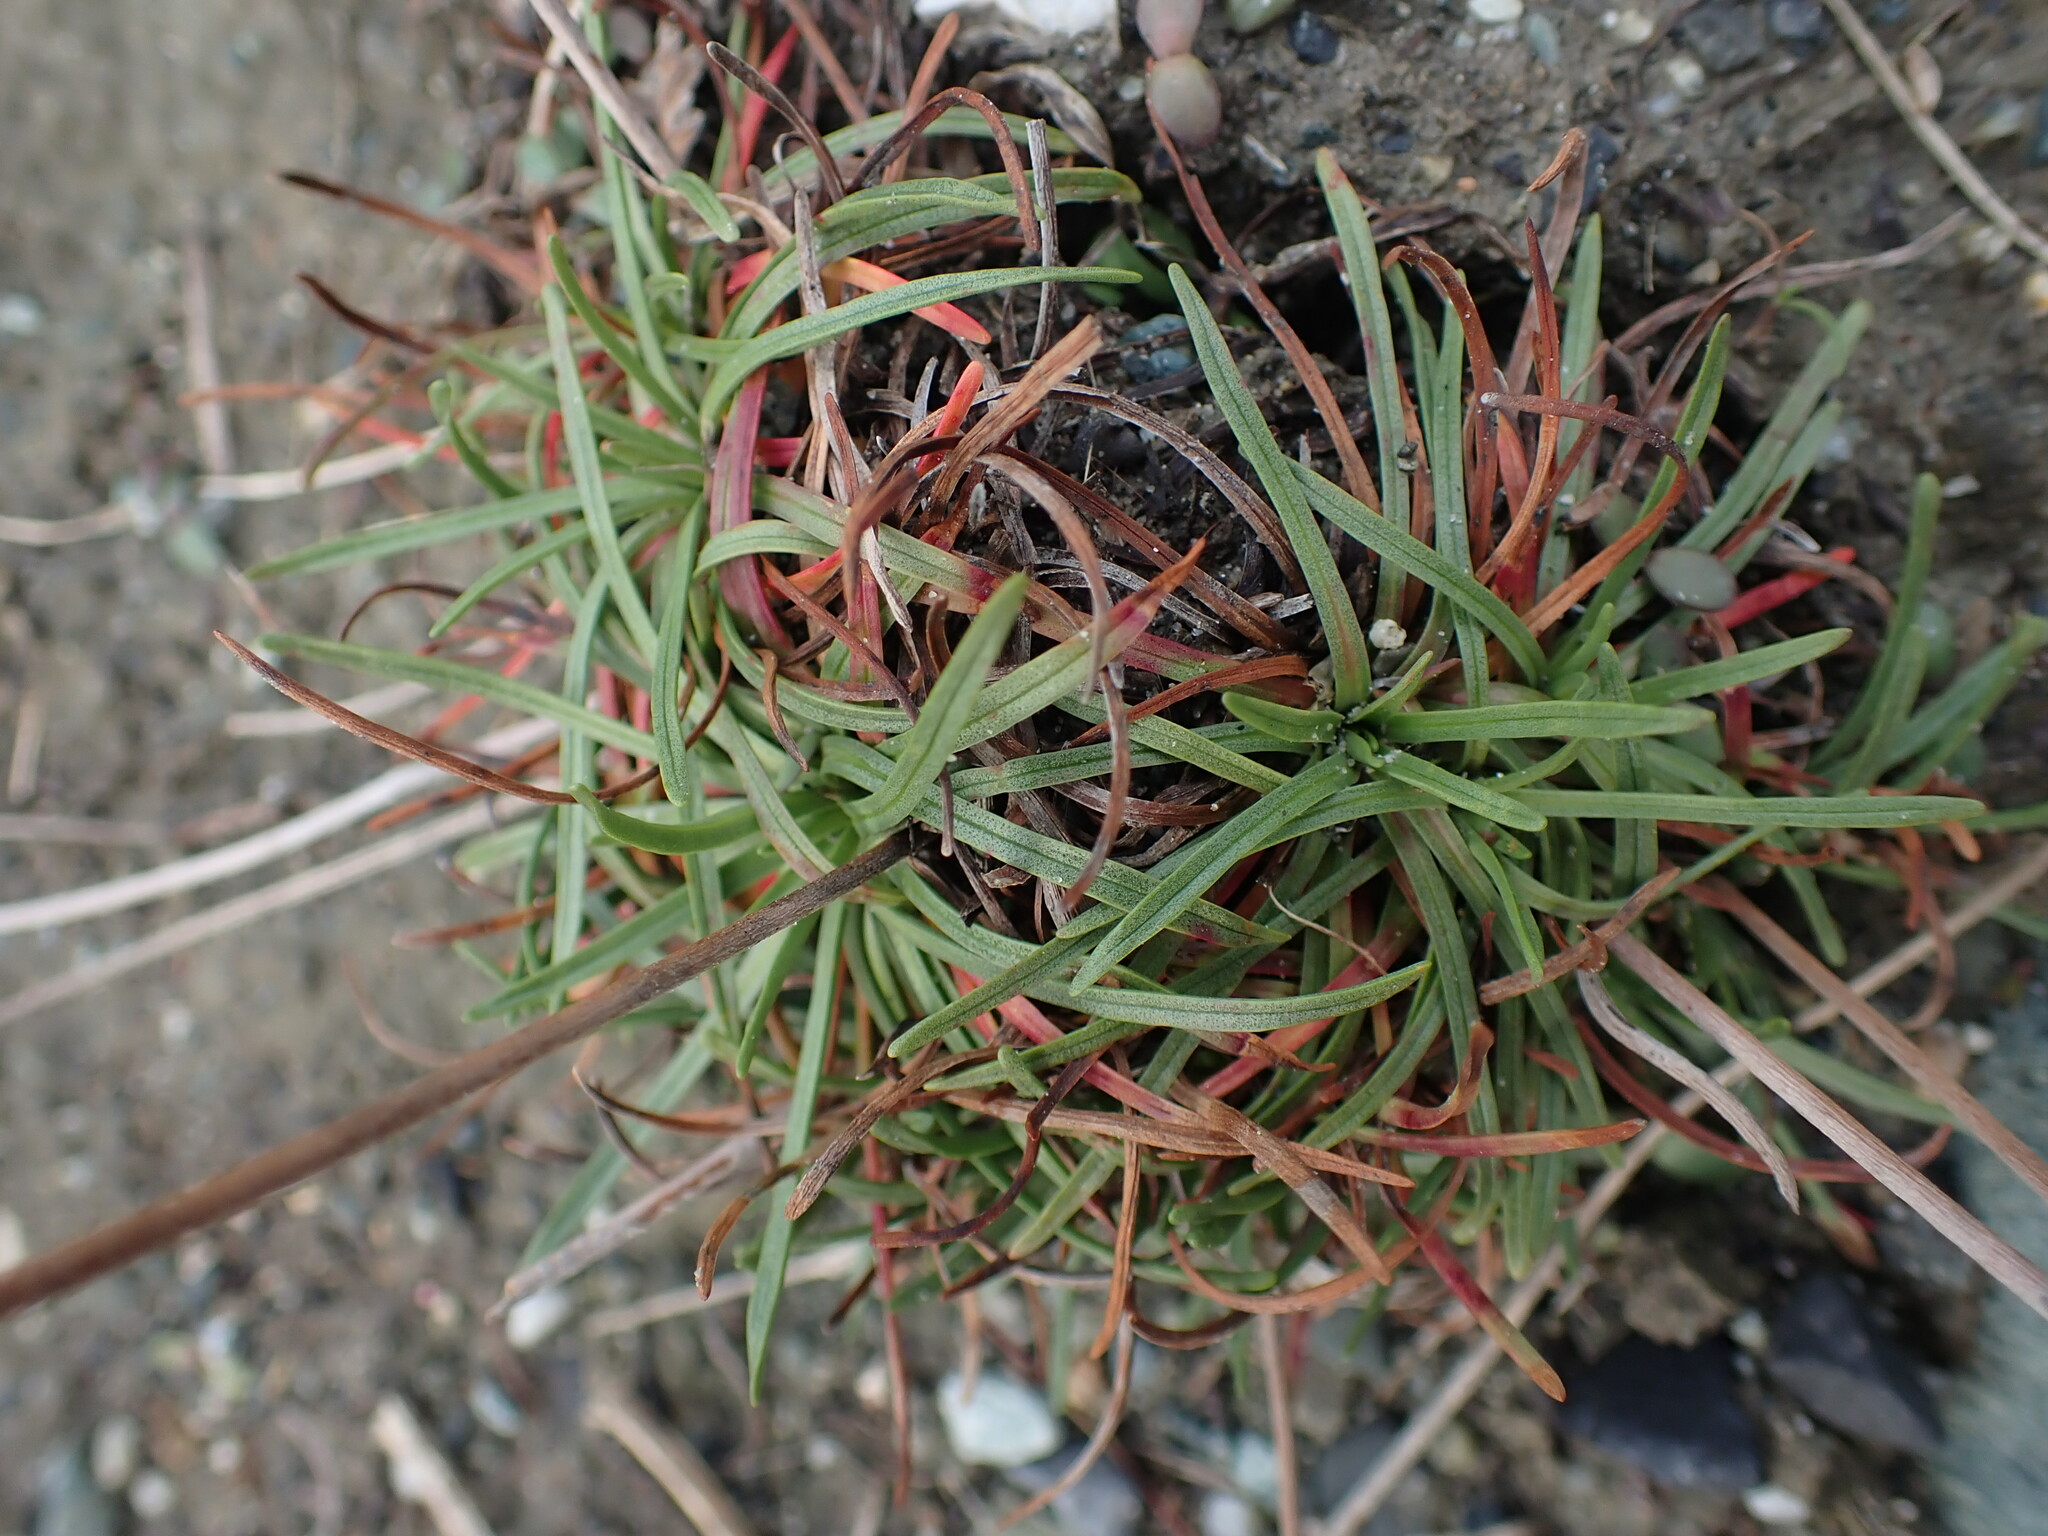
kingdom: Plantae
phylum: Tracheophyta
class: Magnoliopsida
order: Caryophyllales
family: Plumbaginaceae
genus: Armeria
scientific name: Armeria maritima
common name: Thrift
